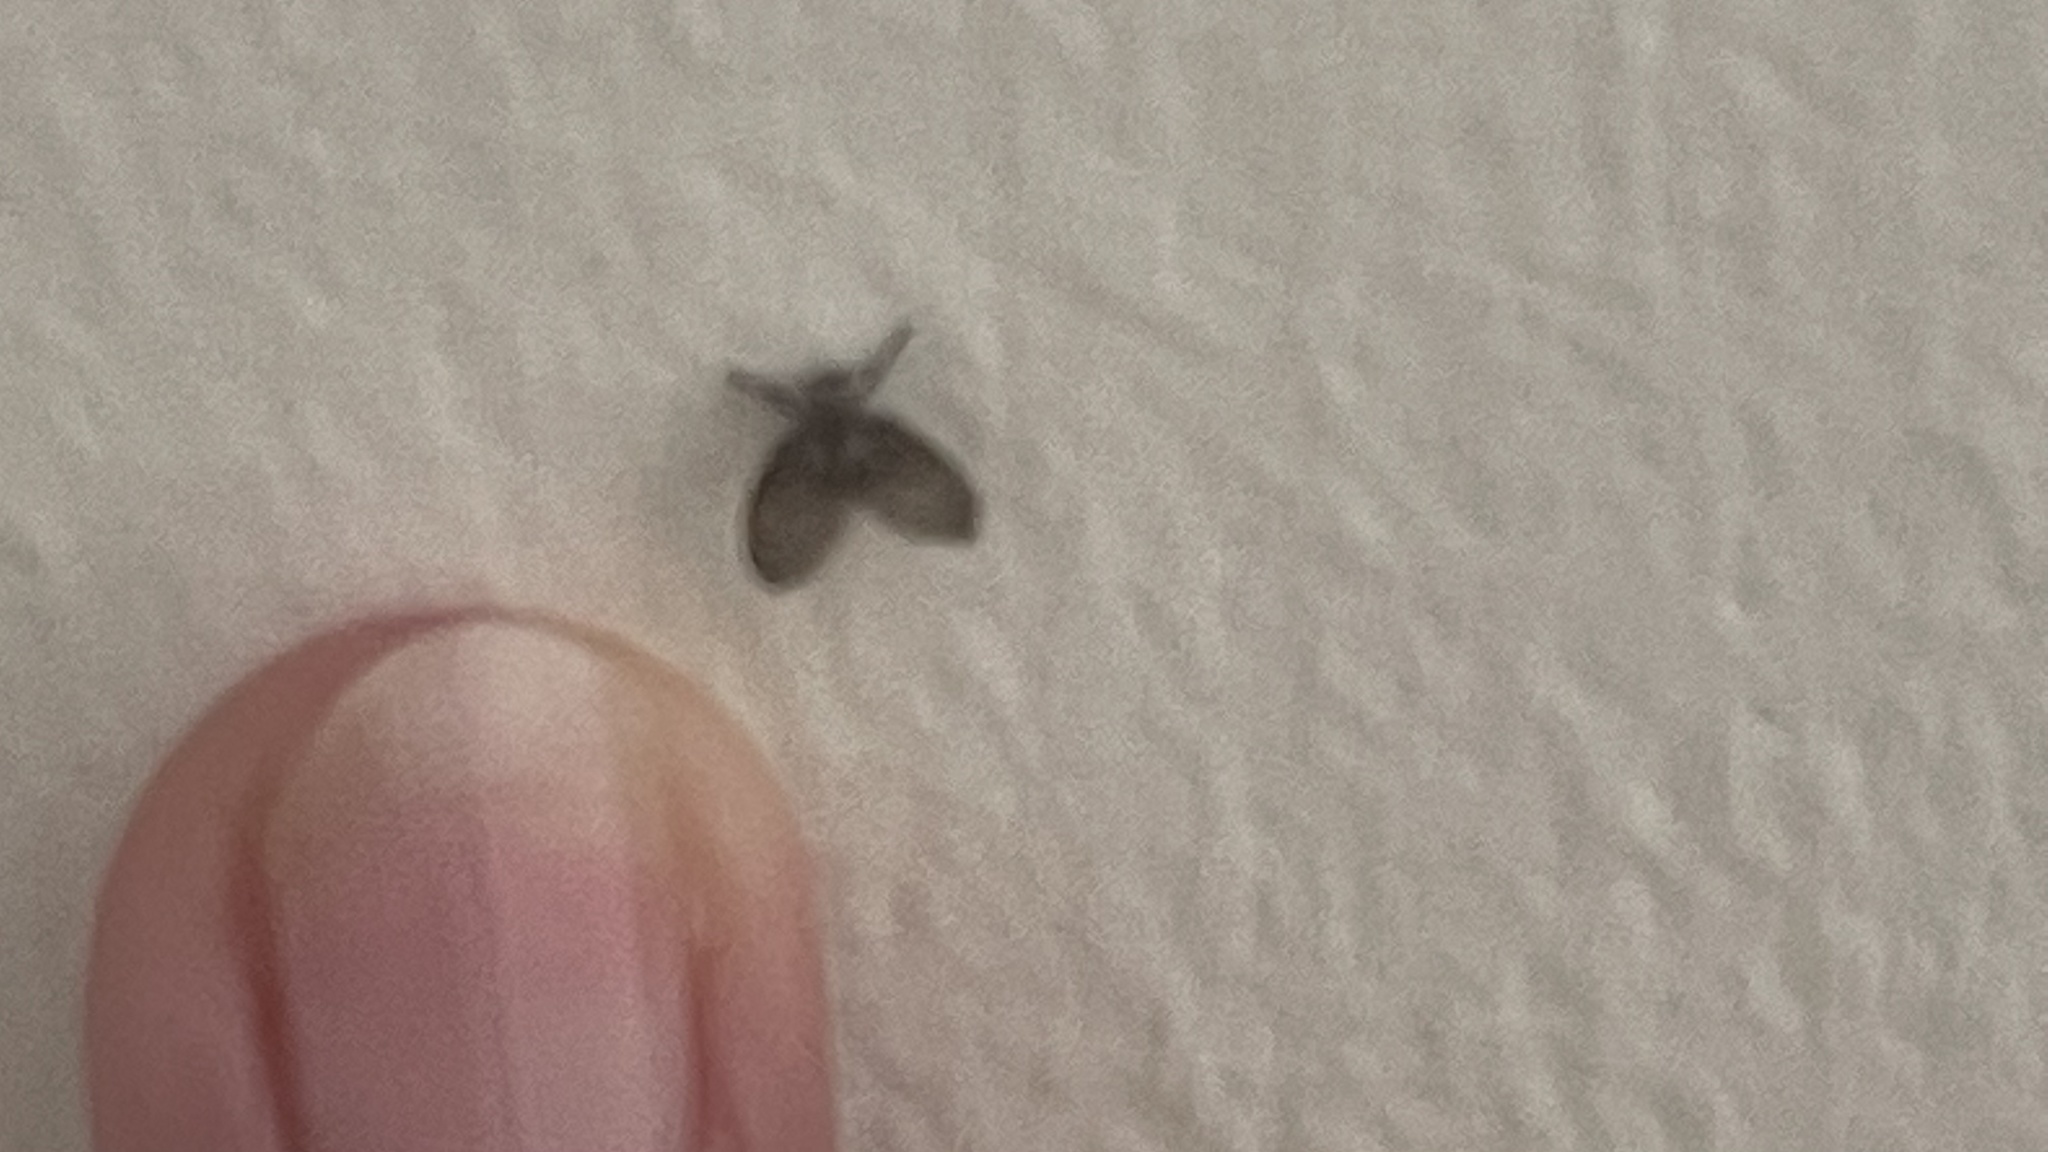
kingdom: Animalia
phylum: Arthropoda
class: Insecta
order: Diptera
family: Psychodidae
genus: Clogmia
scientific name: Clogmia albipunctatus
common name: White-spotted moth fly
